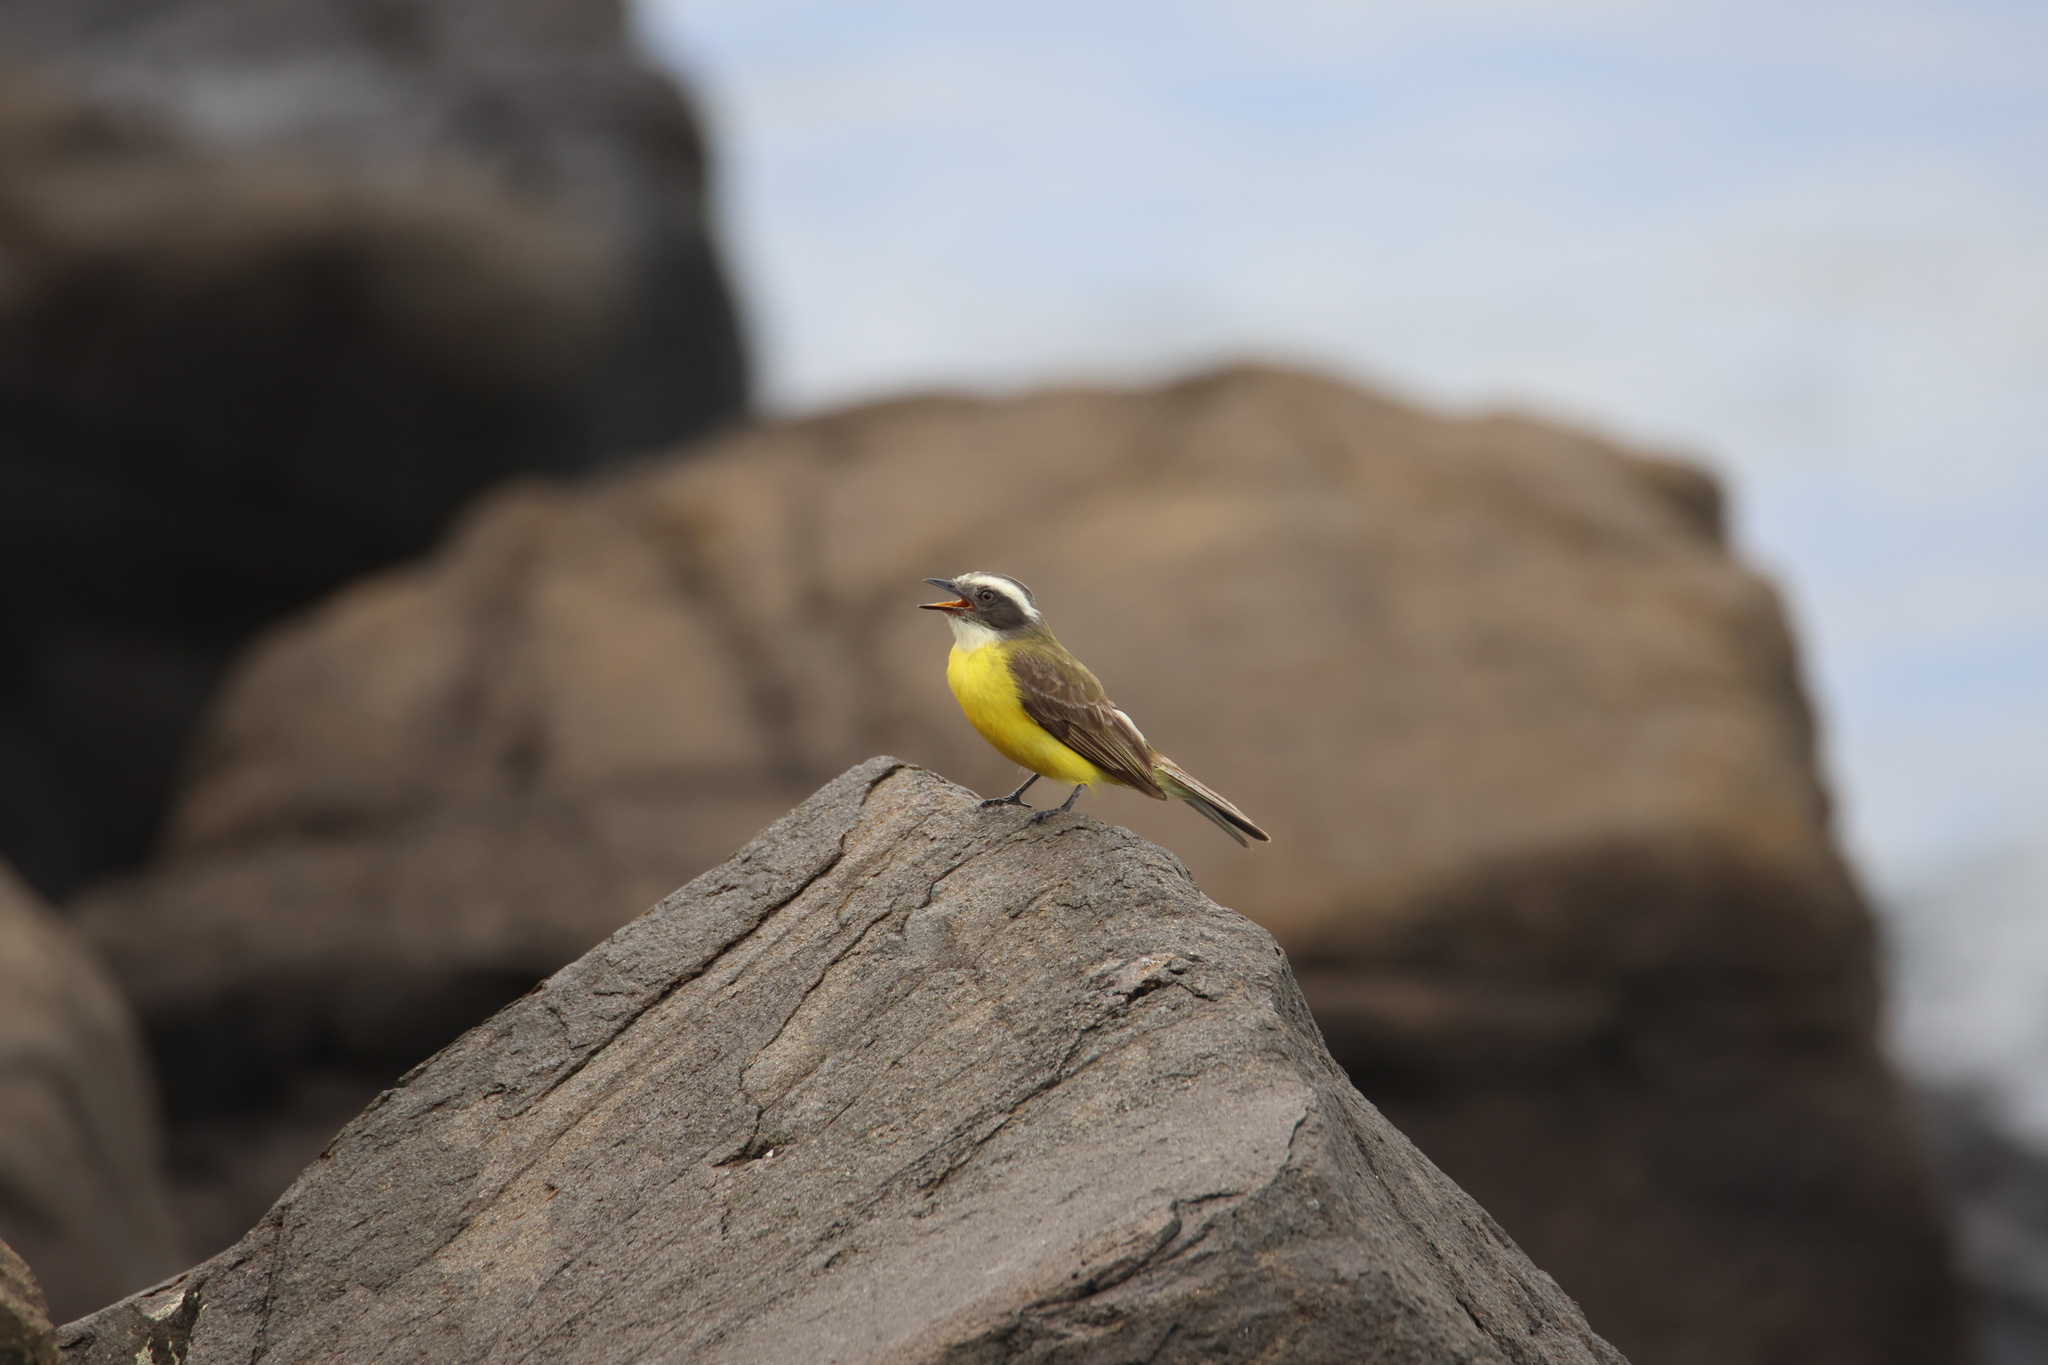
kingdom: Animalia
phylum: Chordata
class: Aves
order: Passeriformes
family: Tyrannidae
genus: Myiozetetes
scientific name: Myiozetetes similis
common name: Social flycatcher
